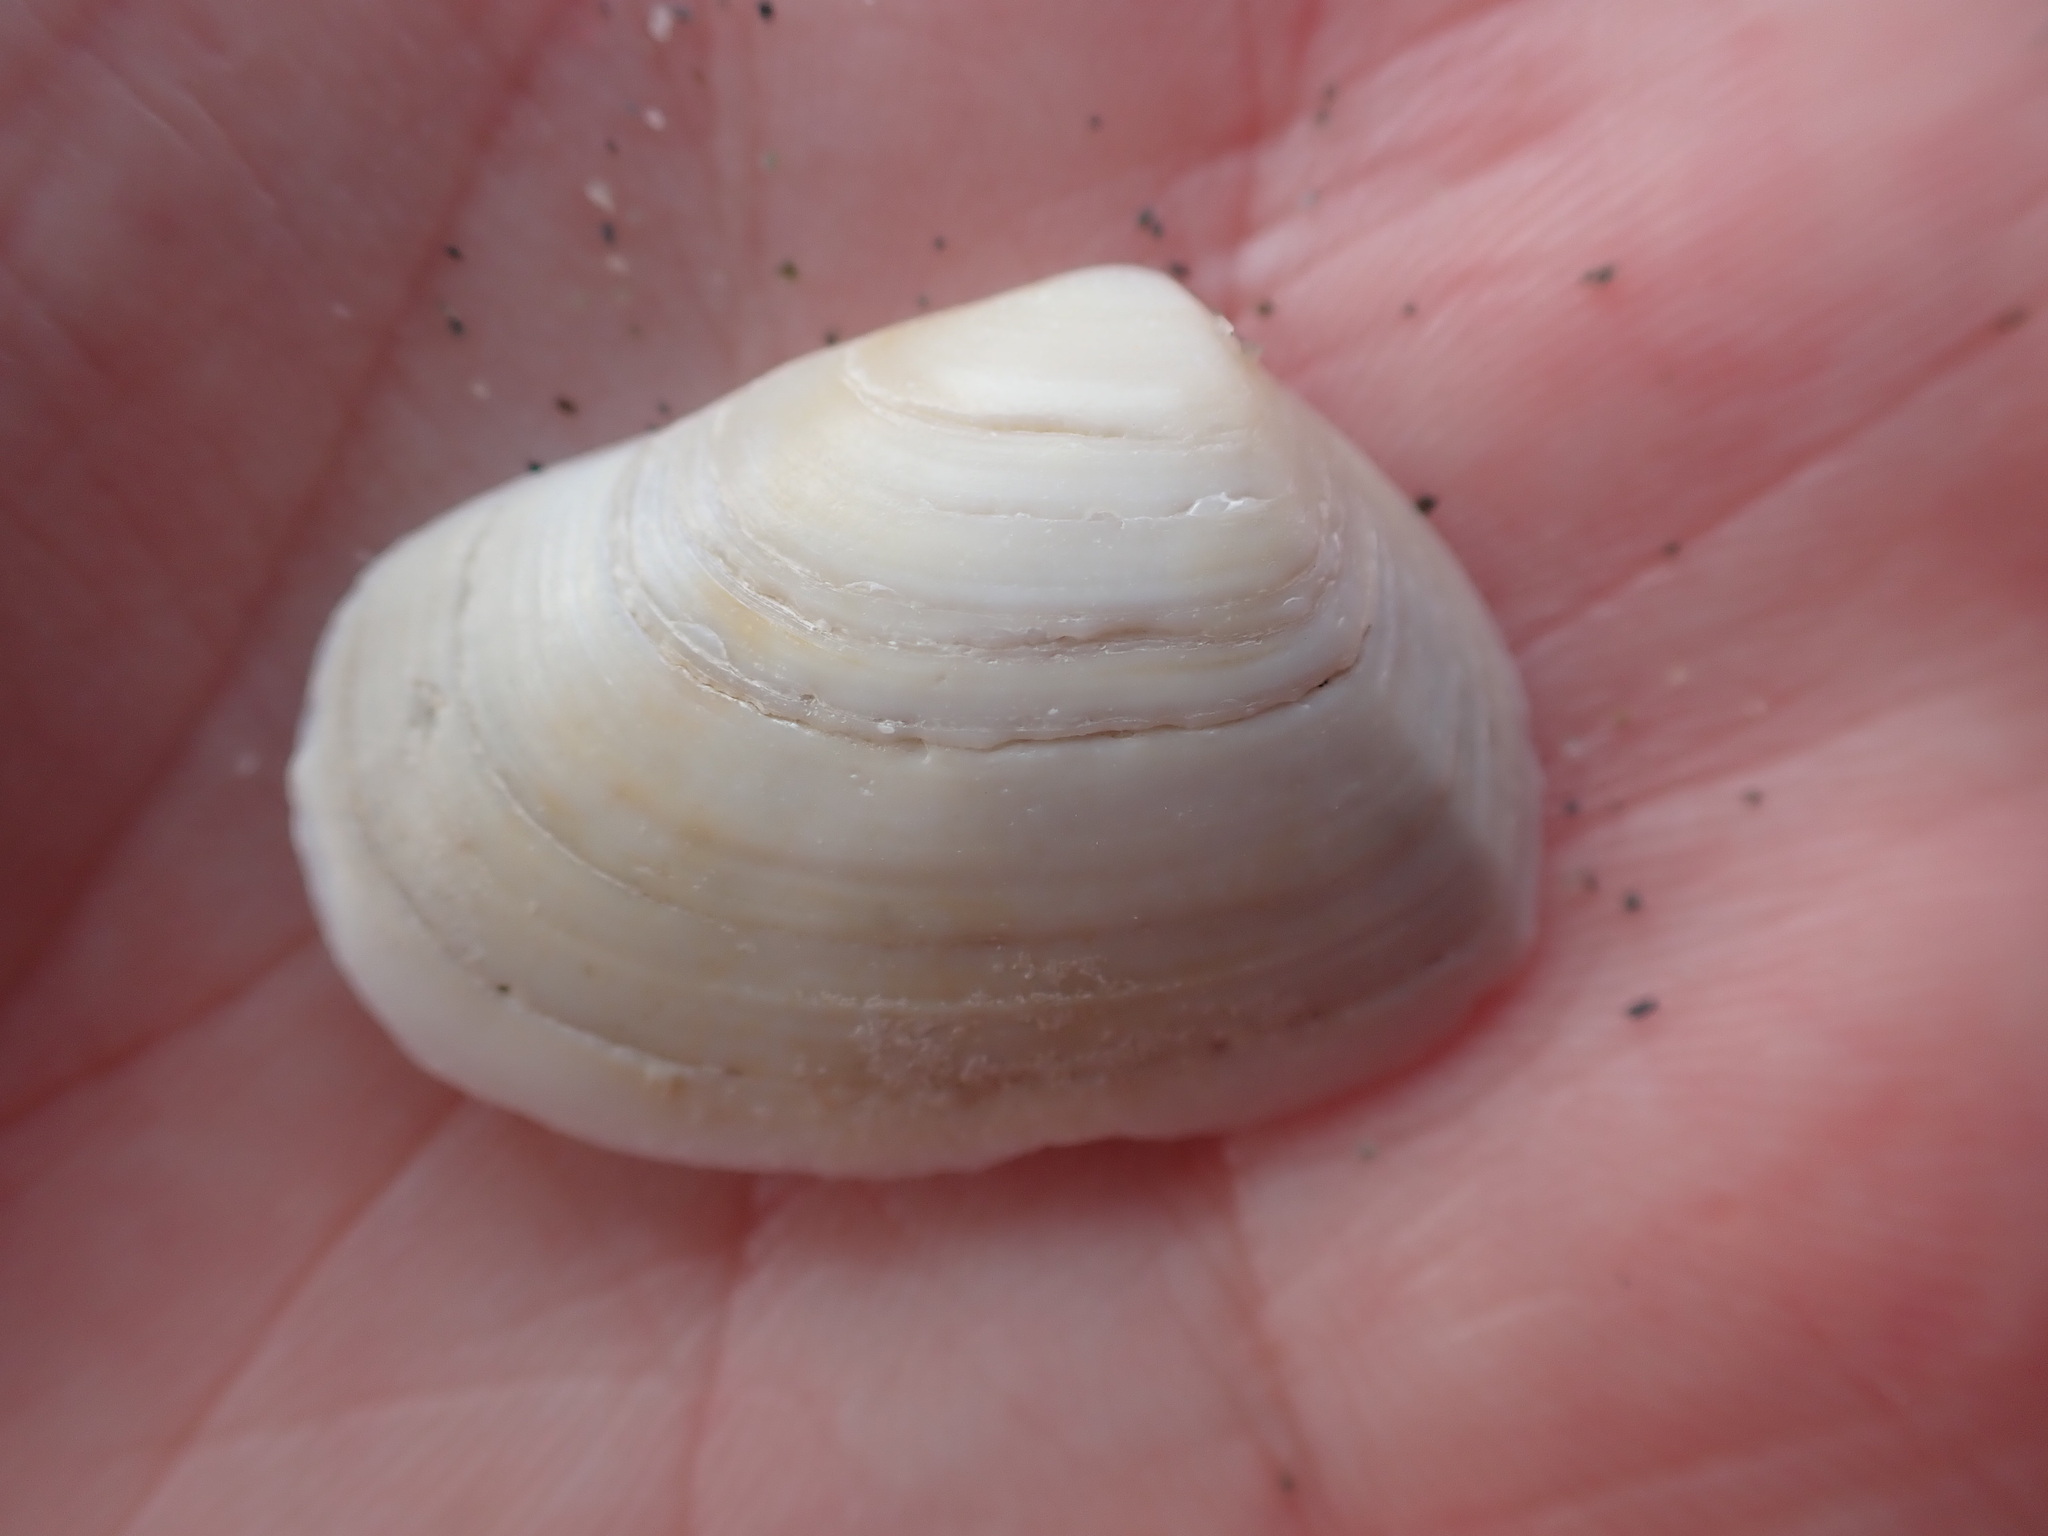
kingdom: Animalia
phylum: Mollusca
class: Bivalvia
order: Venerida
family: Mesodesmatidae
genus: Paphies
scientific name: Paphies subtriangulata
